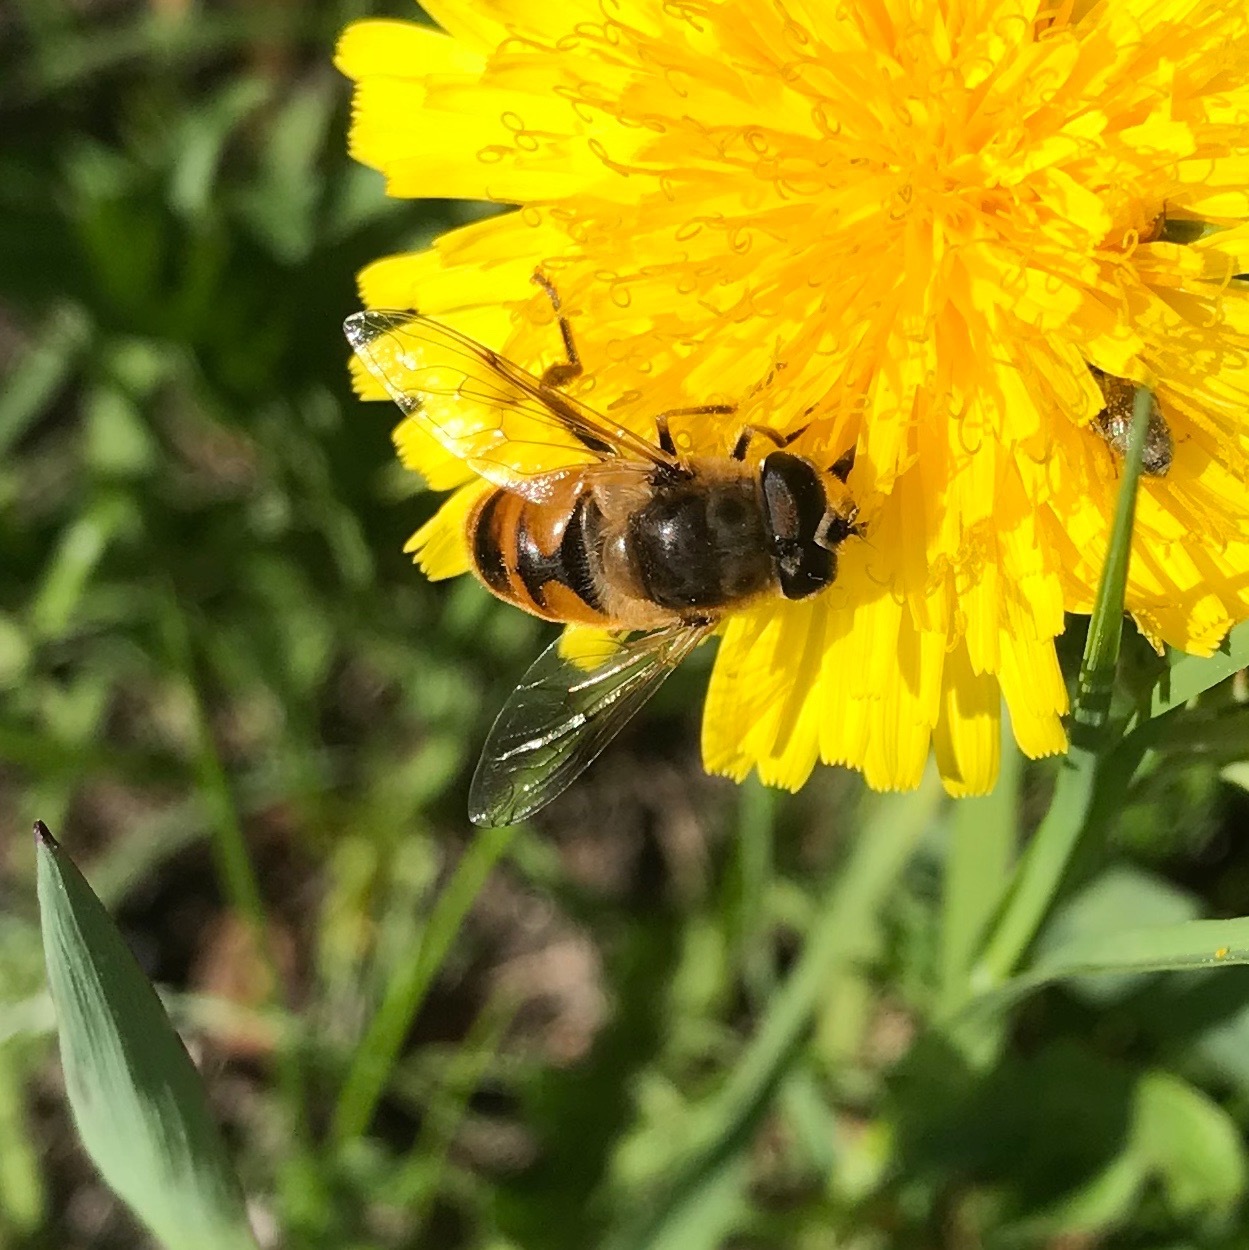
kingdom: Animalia
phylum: Arthropoda
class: Insecta
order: Diptera
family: Syrphidae
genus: Eristalis
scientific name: Eristalis tenax
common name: Drone fly
